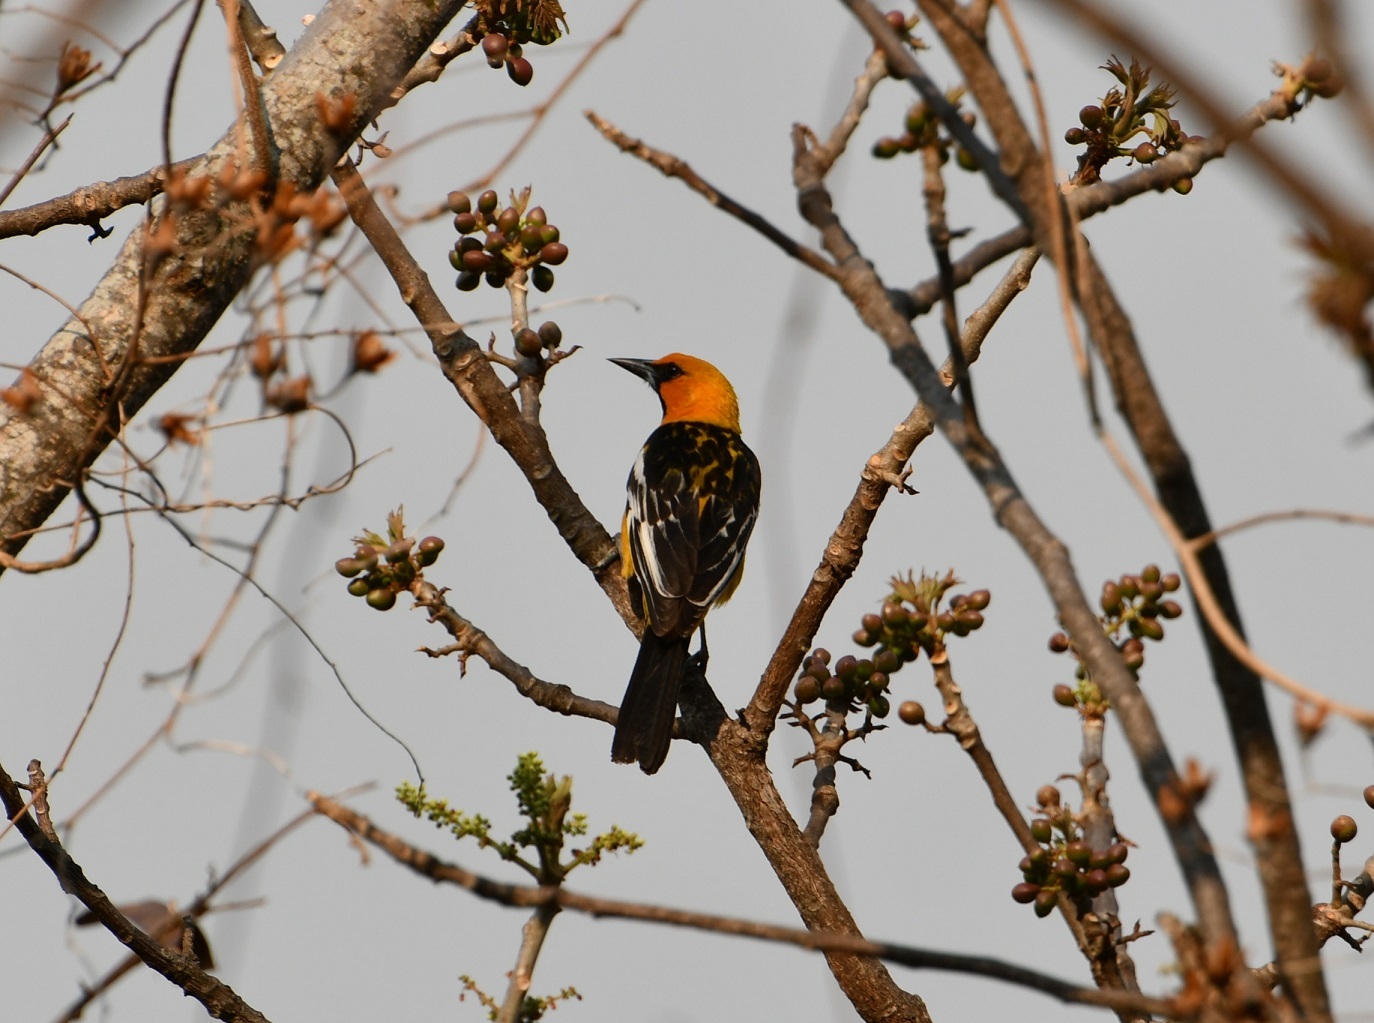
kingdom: Animalia
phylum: Chordata
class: Aves
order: Passeriformes
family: Icteridae
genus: Icterus
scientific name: Icterus pustulatus
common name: Streak-backed oriole
